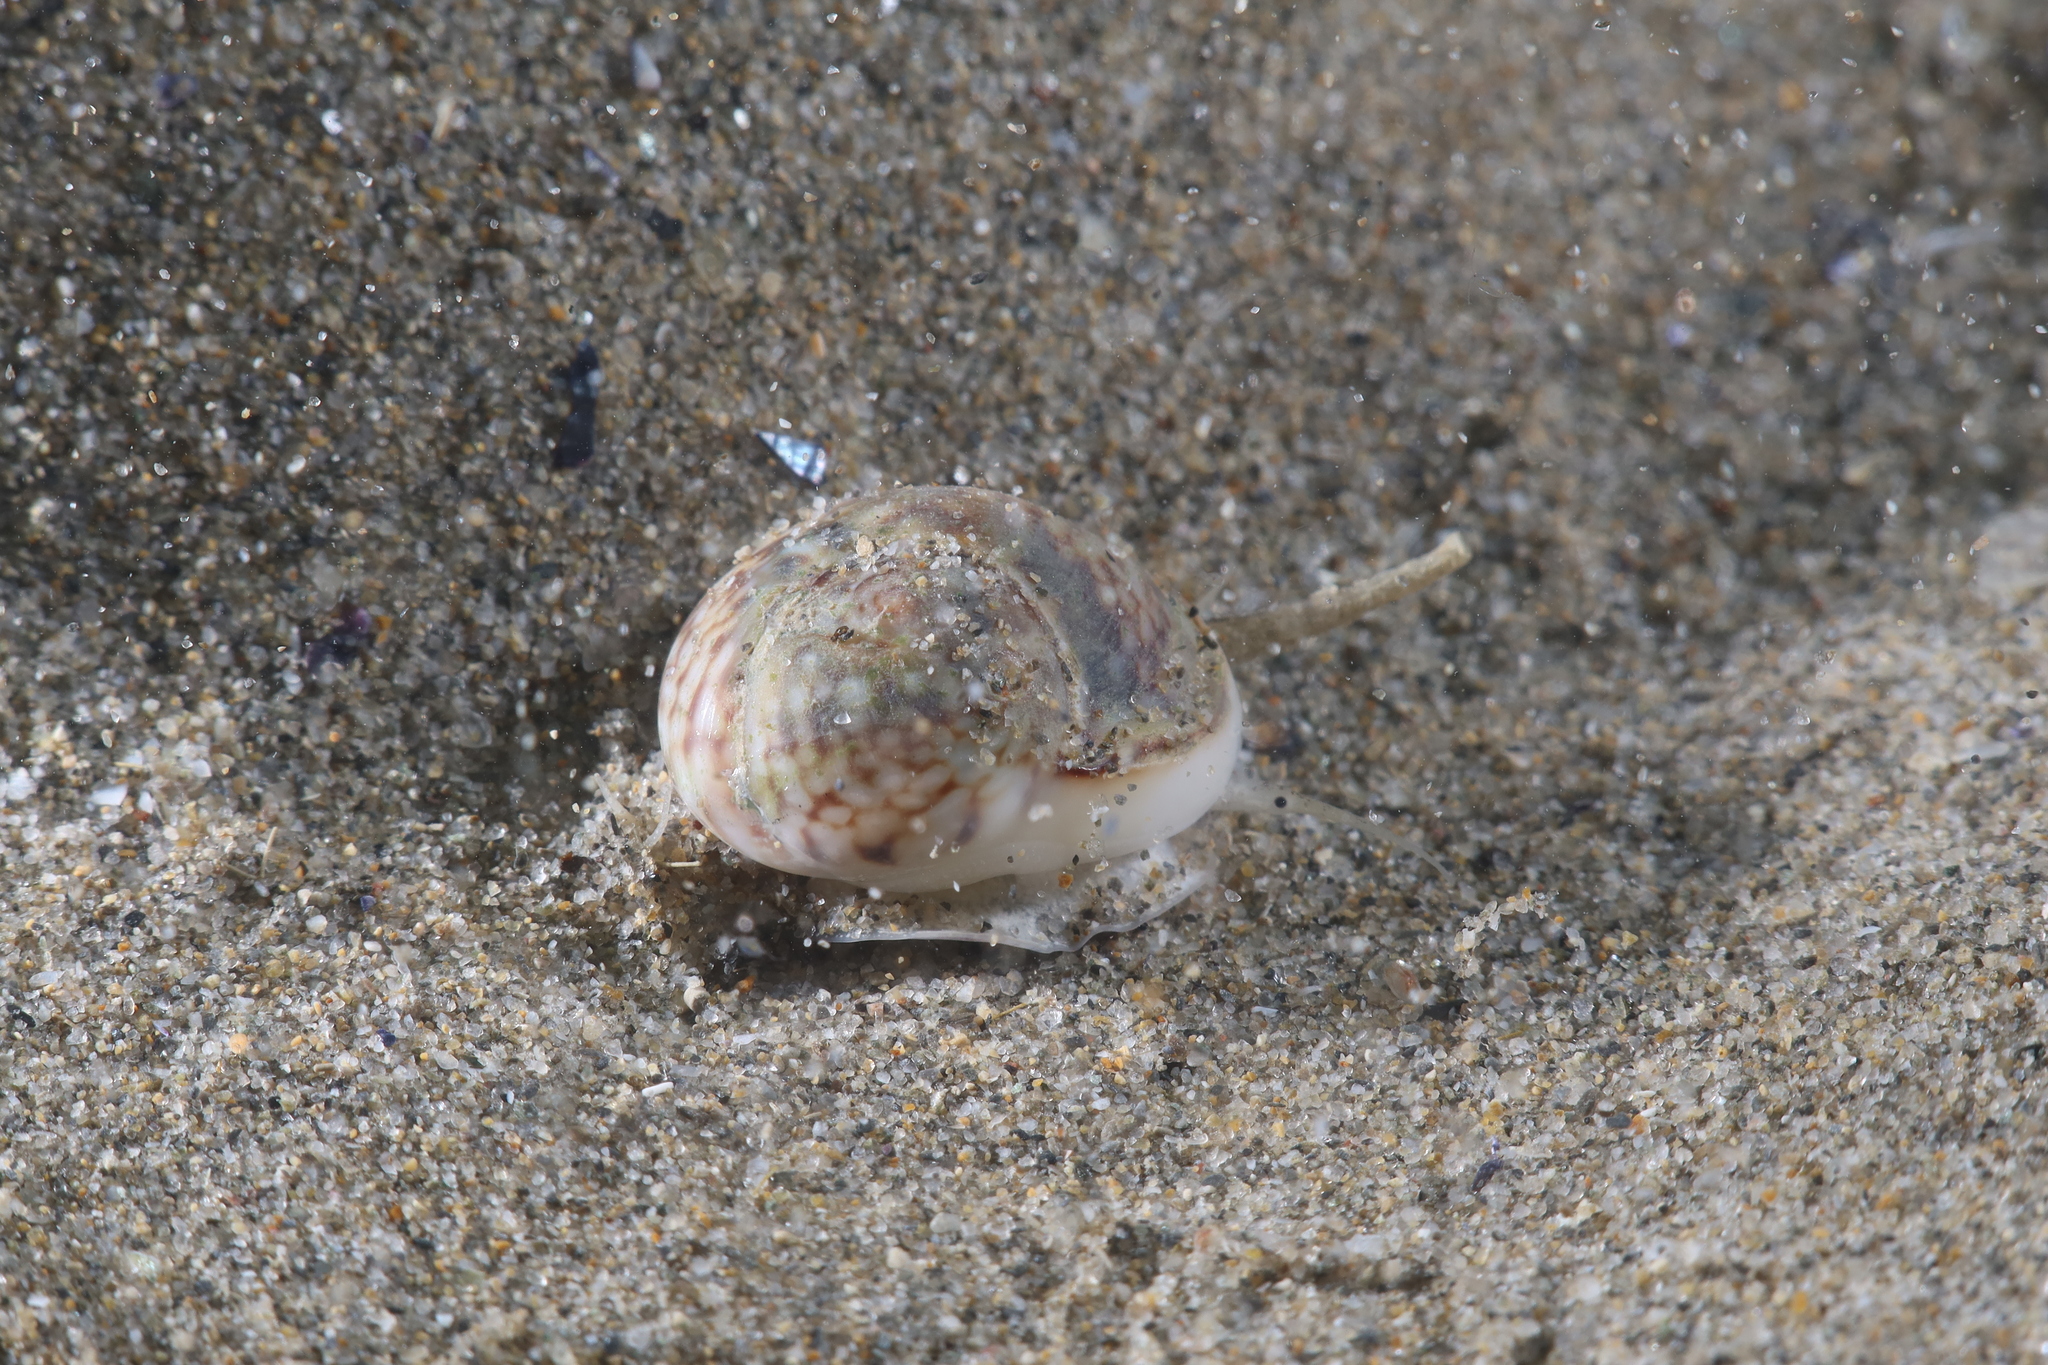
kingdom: Animalia
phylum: Mollusca
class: Gastropoda
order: Neogastropoda
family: Nassariidae
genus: Tritia
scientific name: Tritia neritea
